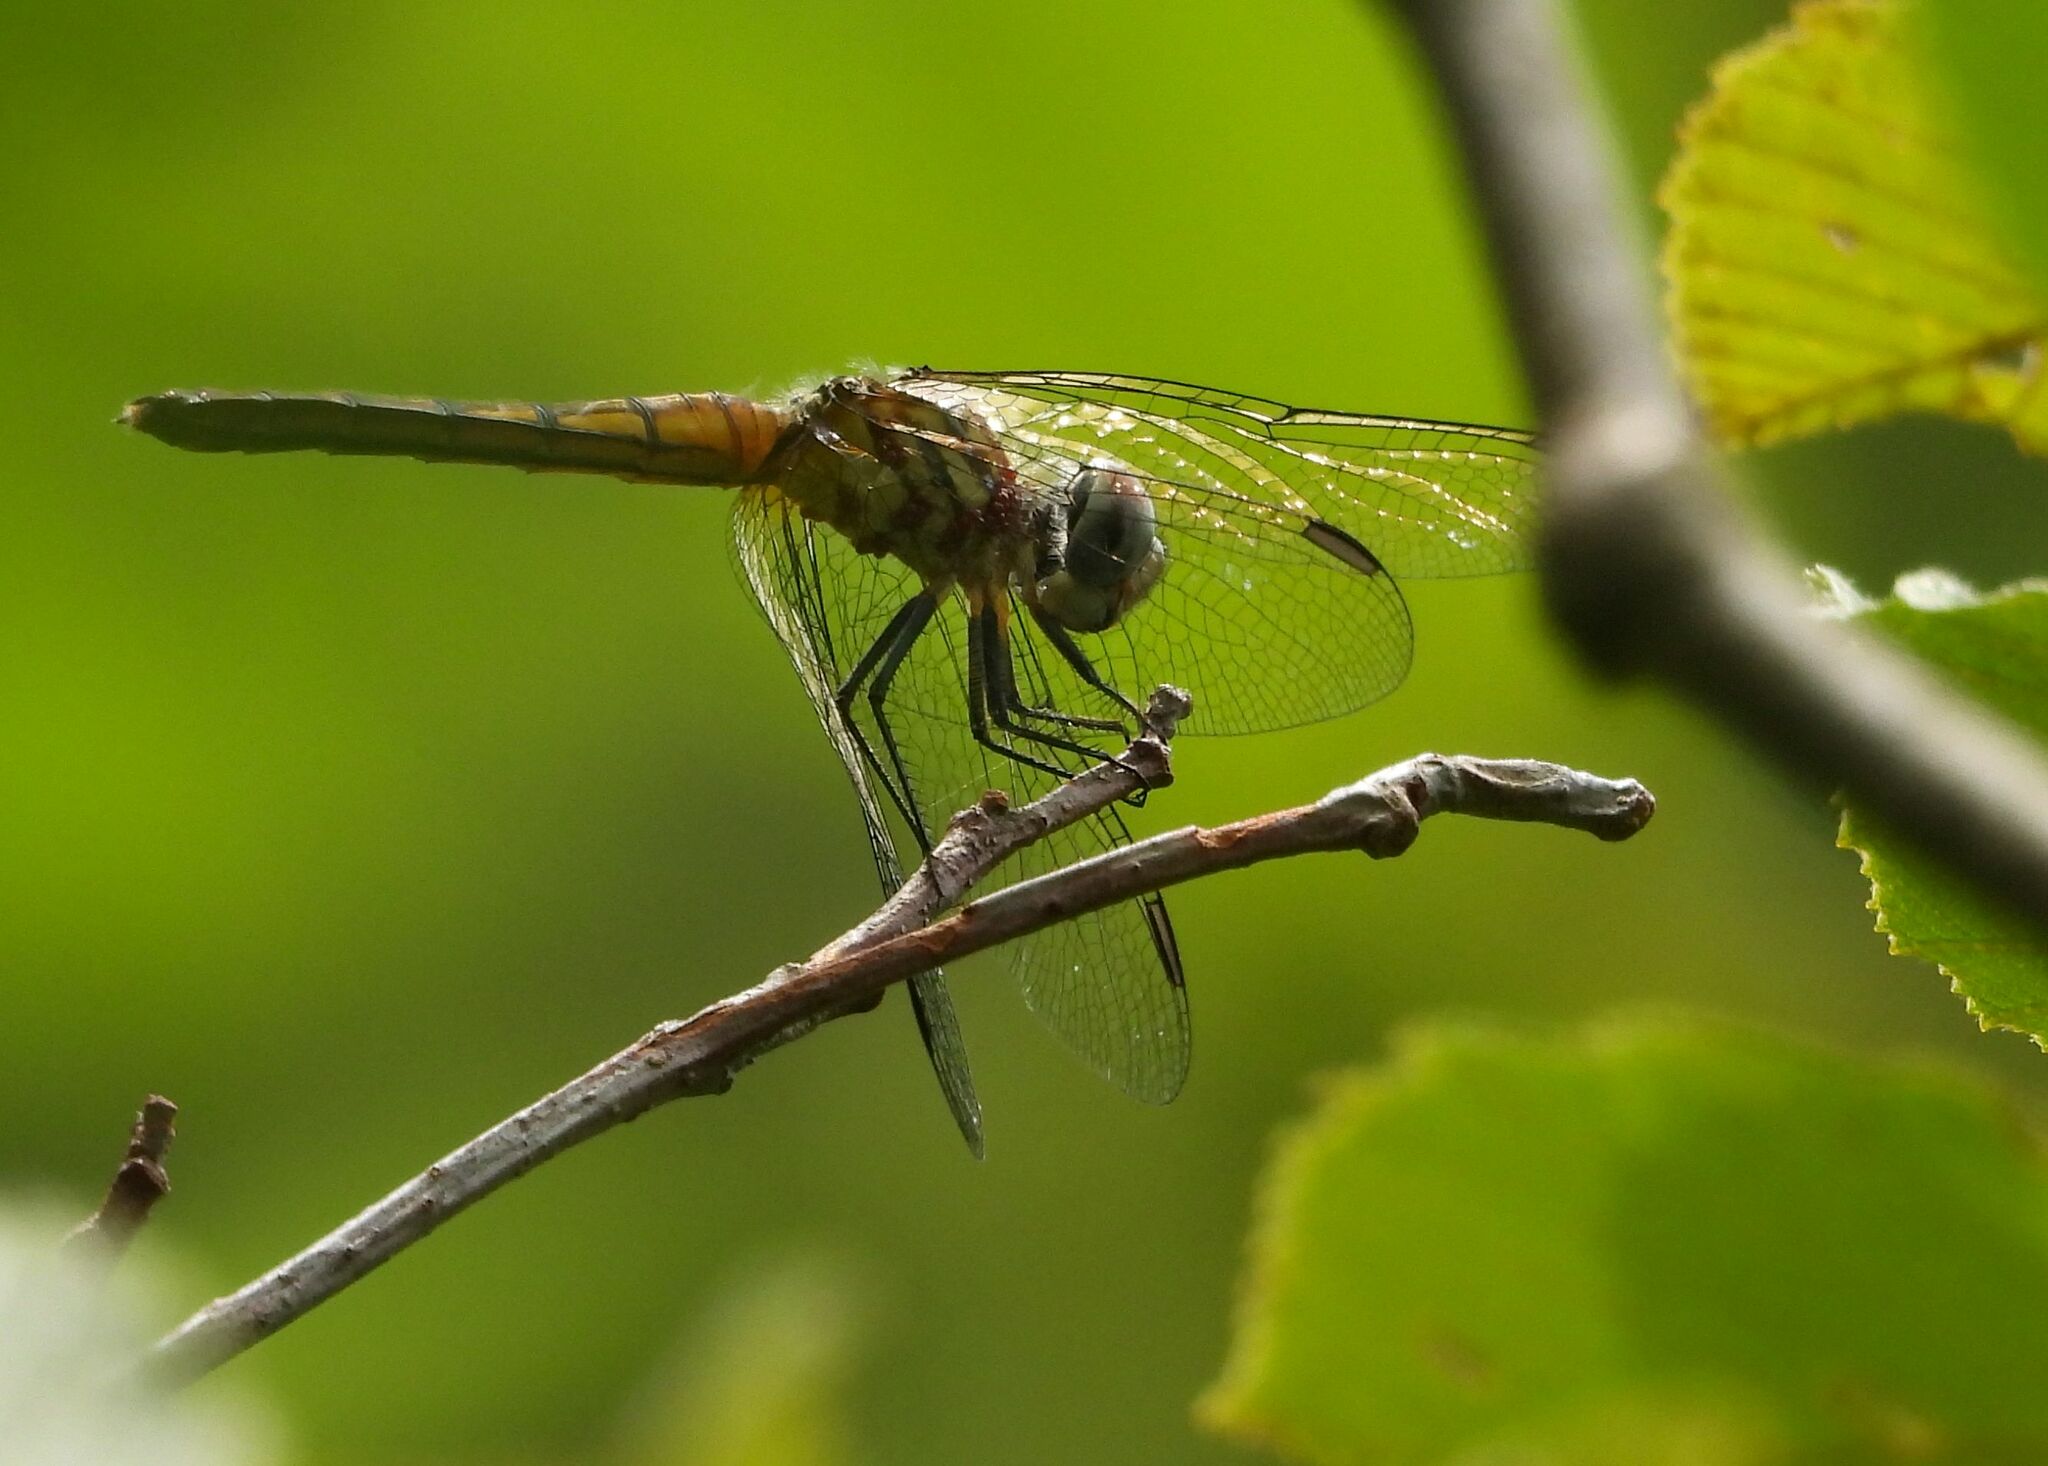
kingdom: Animalia
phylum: Arthropoda
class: Insecta
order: Odonata
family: Libellulidae
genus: Pachydiplax
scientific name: Pachydiplax longipennis
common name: Blue dasher
